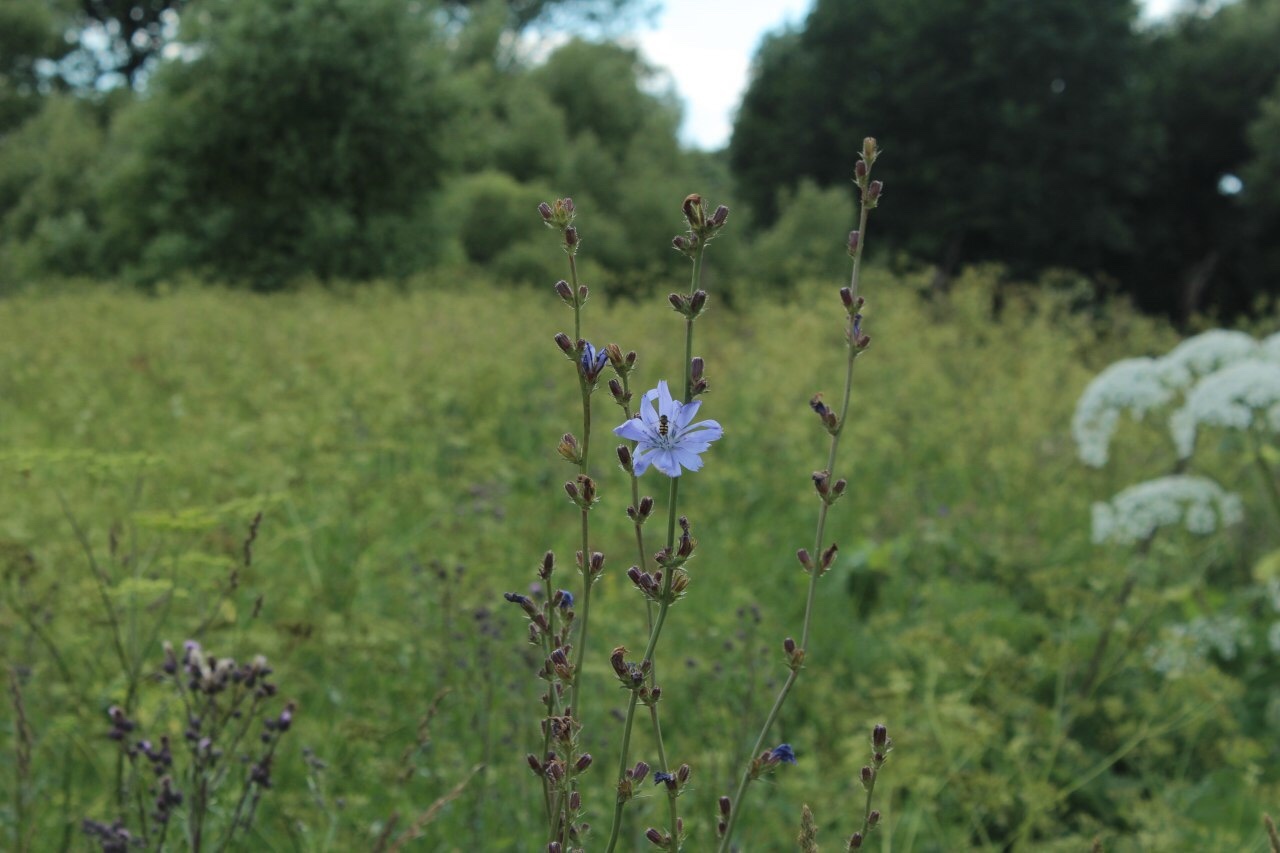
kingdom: Plantae
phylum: Tracheophyta
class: Magnoliopsida
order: Asterales
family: Asteraceae
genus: Cichorium
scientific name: Cichorium intybus
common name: Chicory
